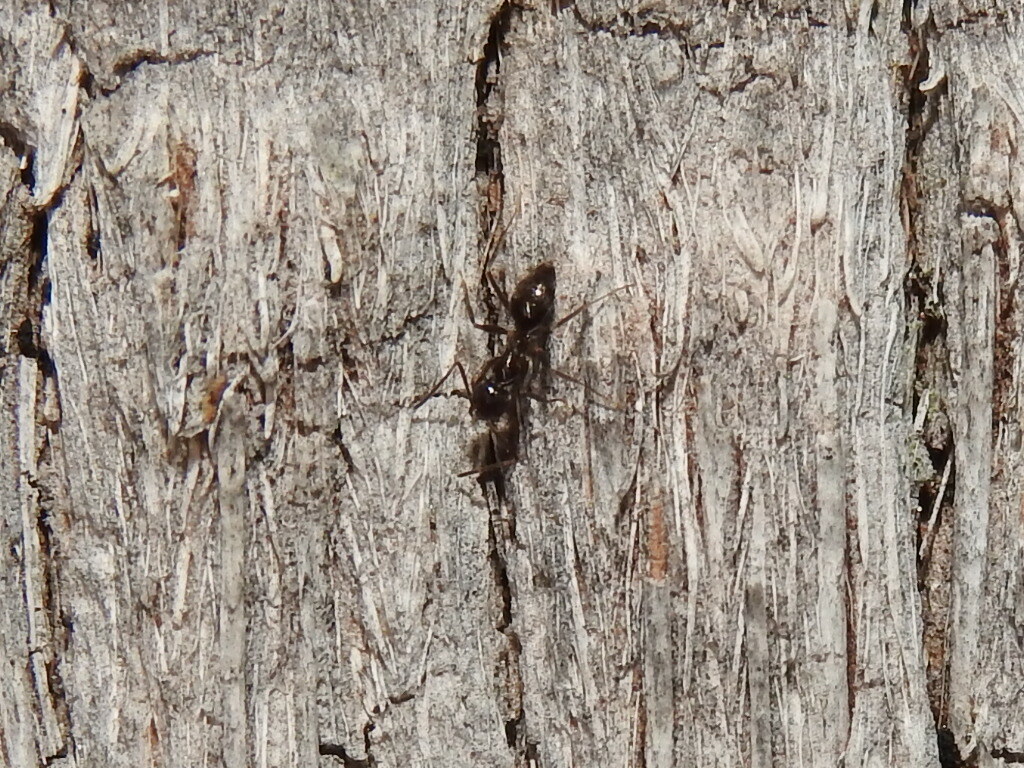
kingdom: Animalia
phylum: Arthropoda
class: Insecta
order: Hymenoptera
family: Formicidae
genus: Paratrechina
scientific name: Paratrechina bourbonica
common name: Ant
